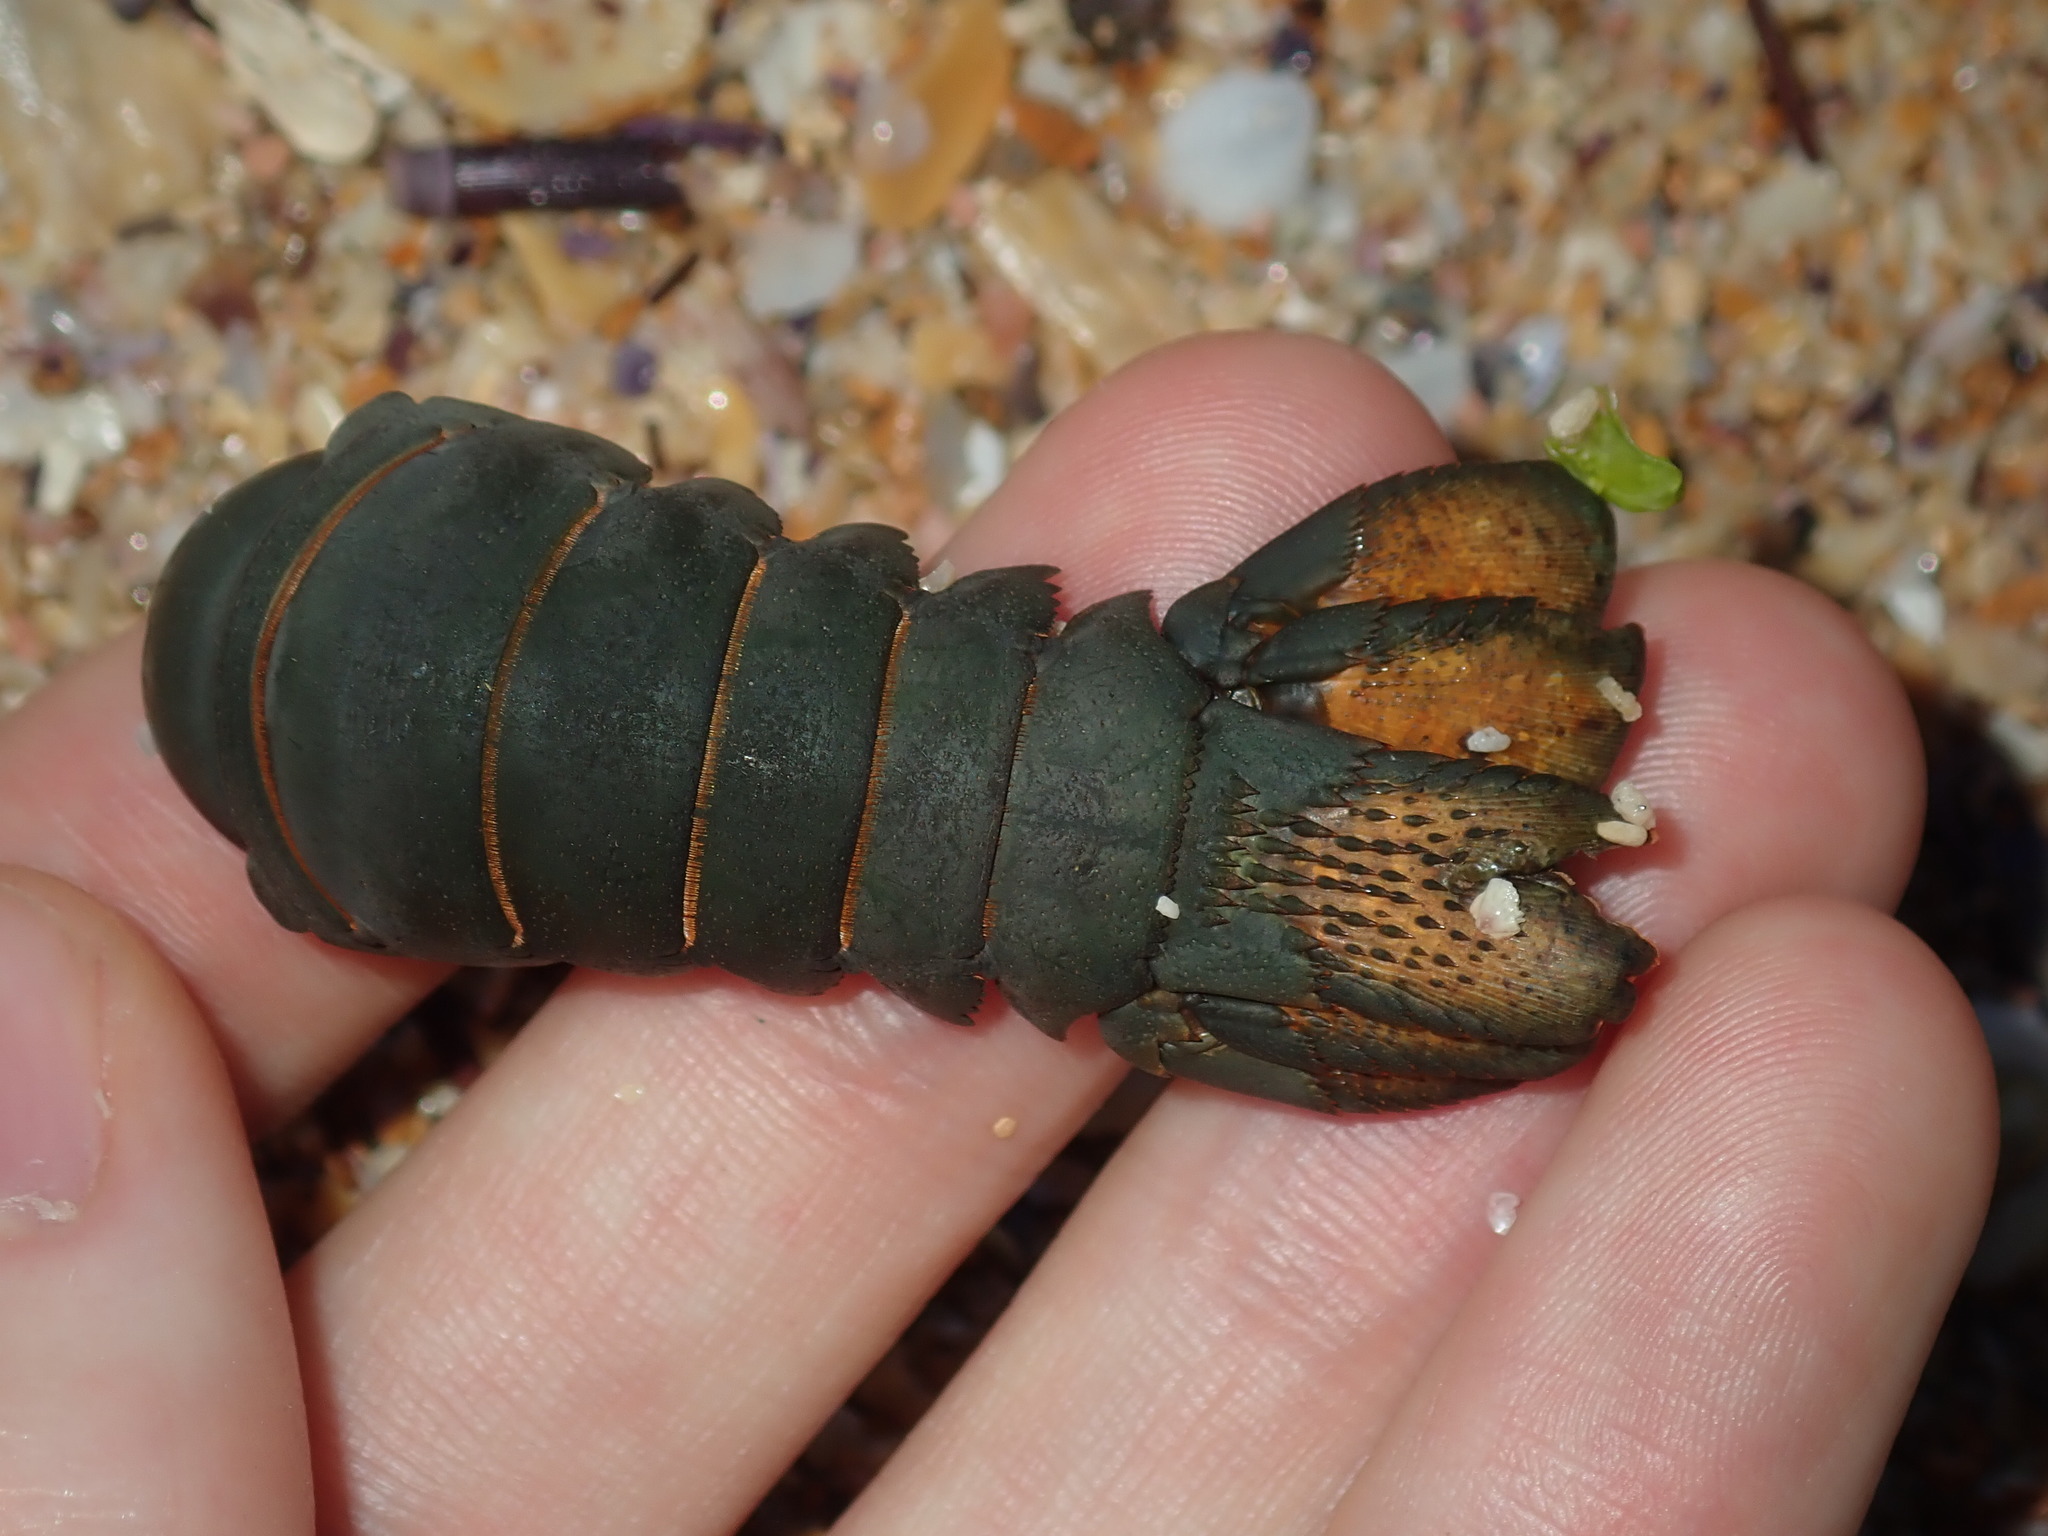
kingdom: Animalia
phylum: Arthropoda
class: Malacostraca
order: Decapoda
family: Palinuridae
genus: Sagmariasus
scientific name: Sagmariasus verreauxi
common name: Green rock lobster
